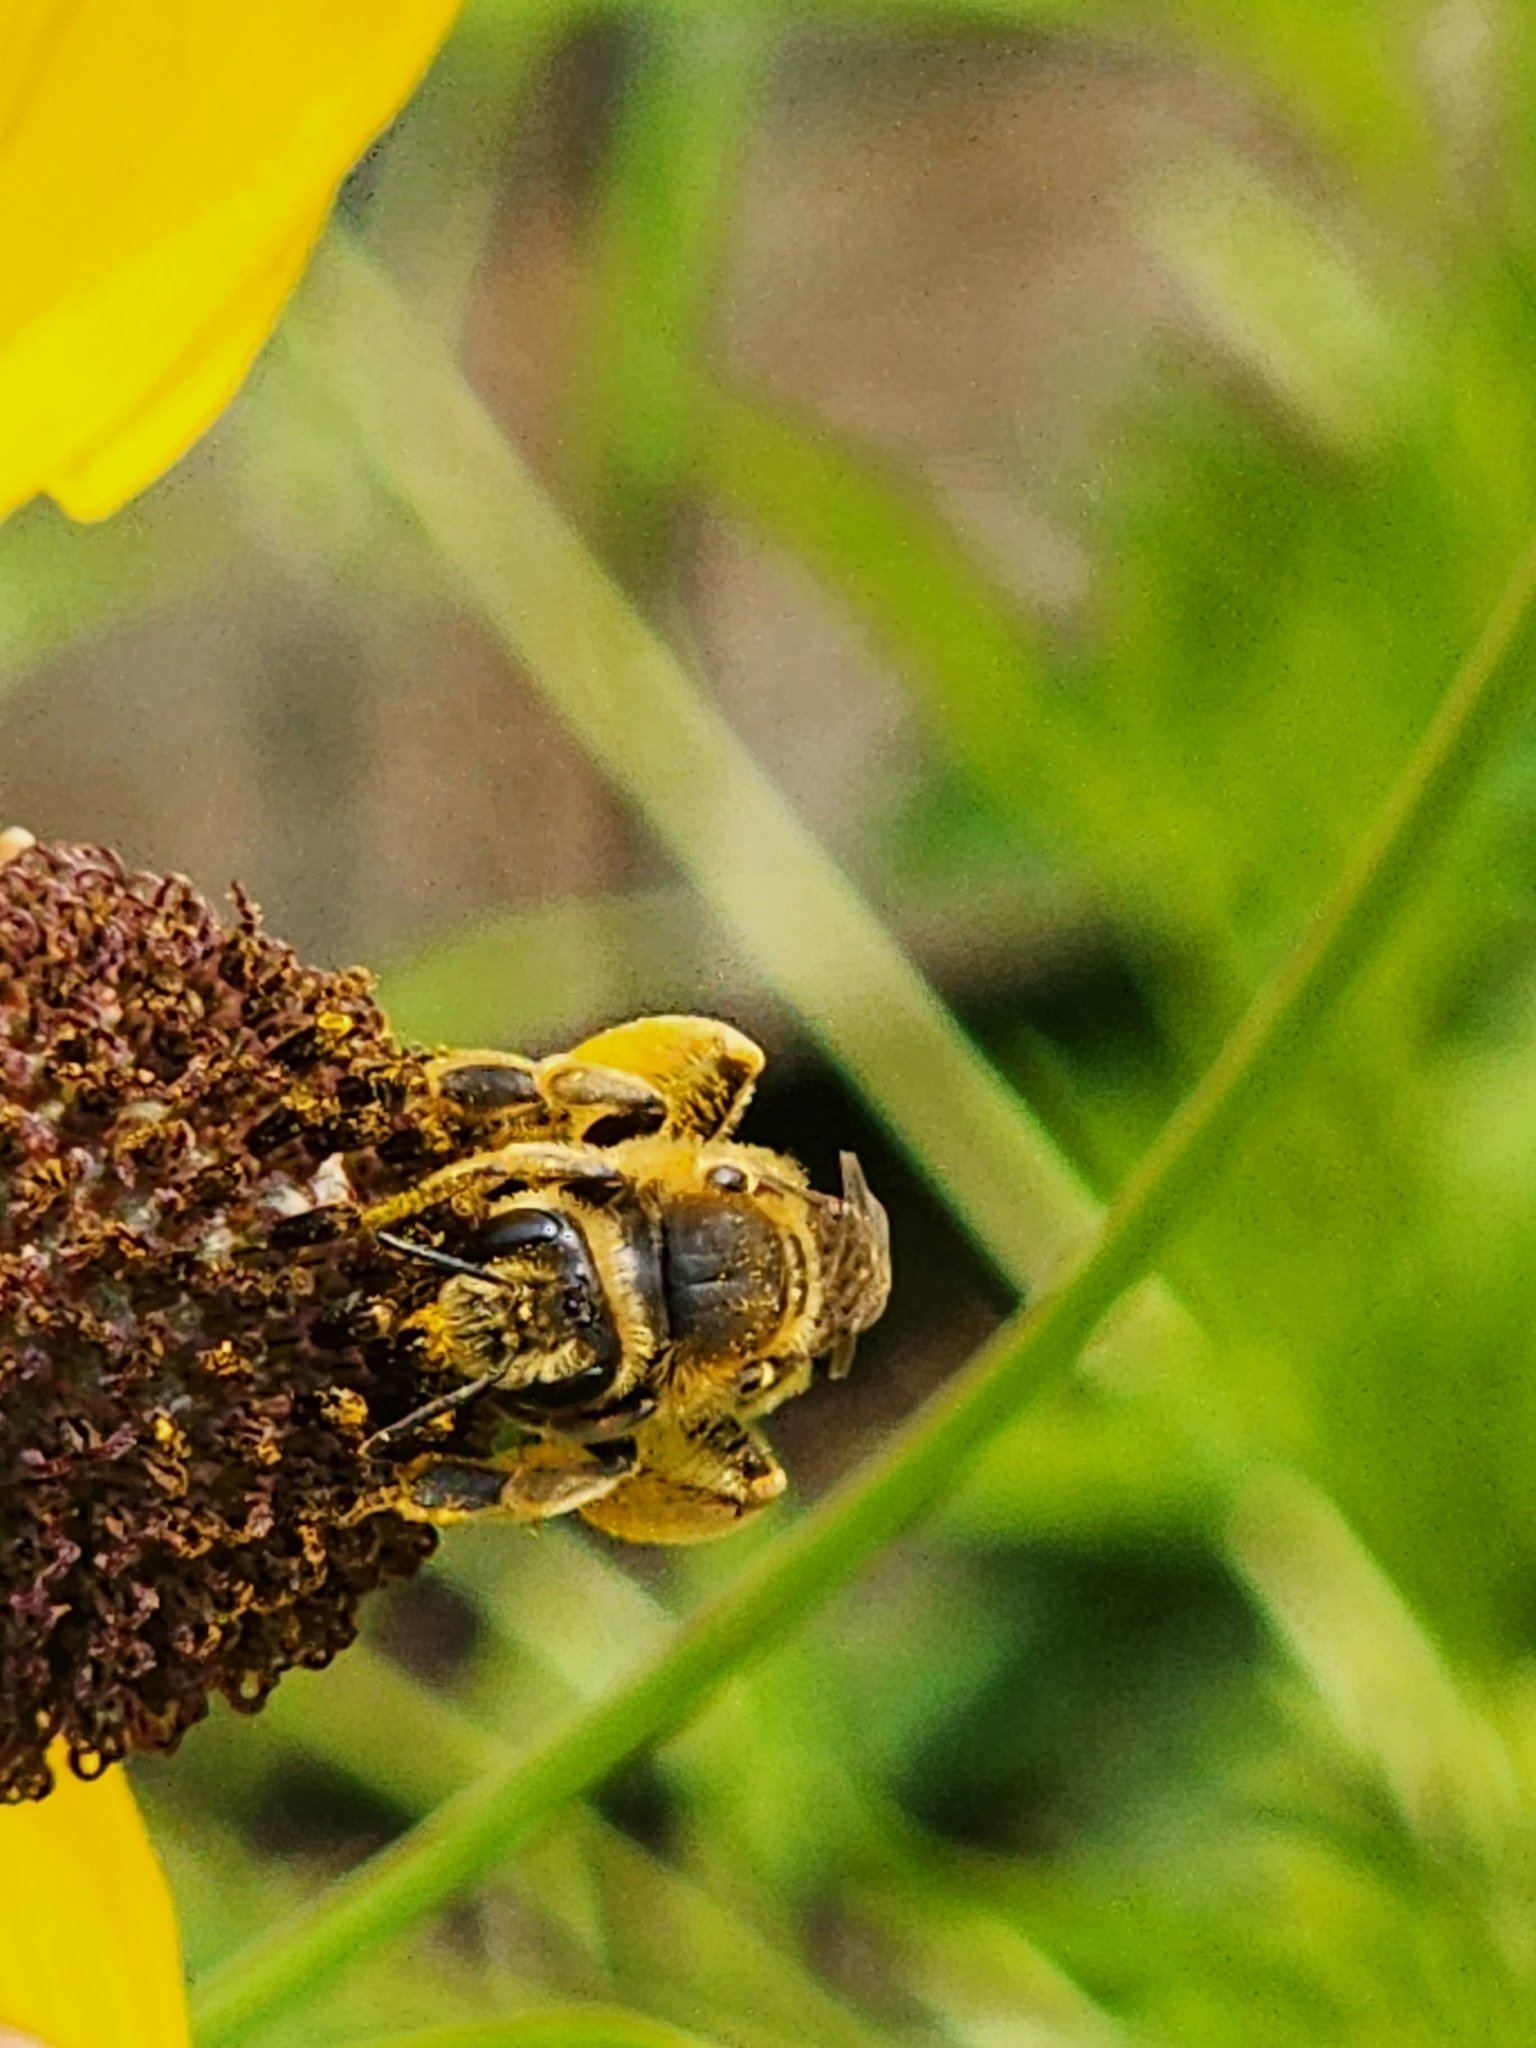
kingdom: Animalia
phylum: Arthropoda
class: Insecta
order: Hymenoptera
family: Andrenidae
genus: Andrena
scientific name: Andrena rudbeckiae
